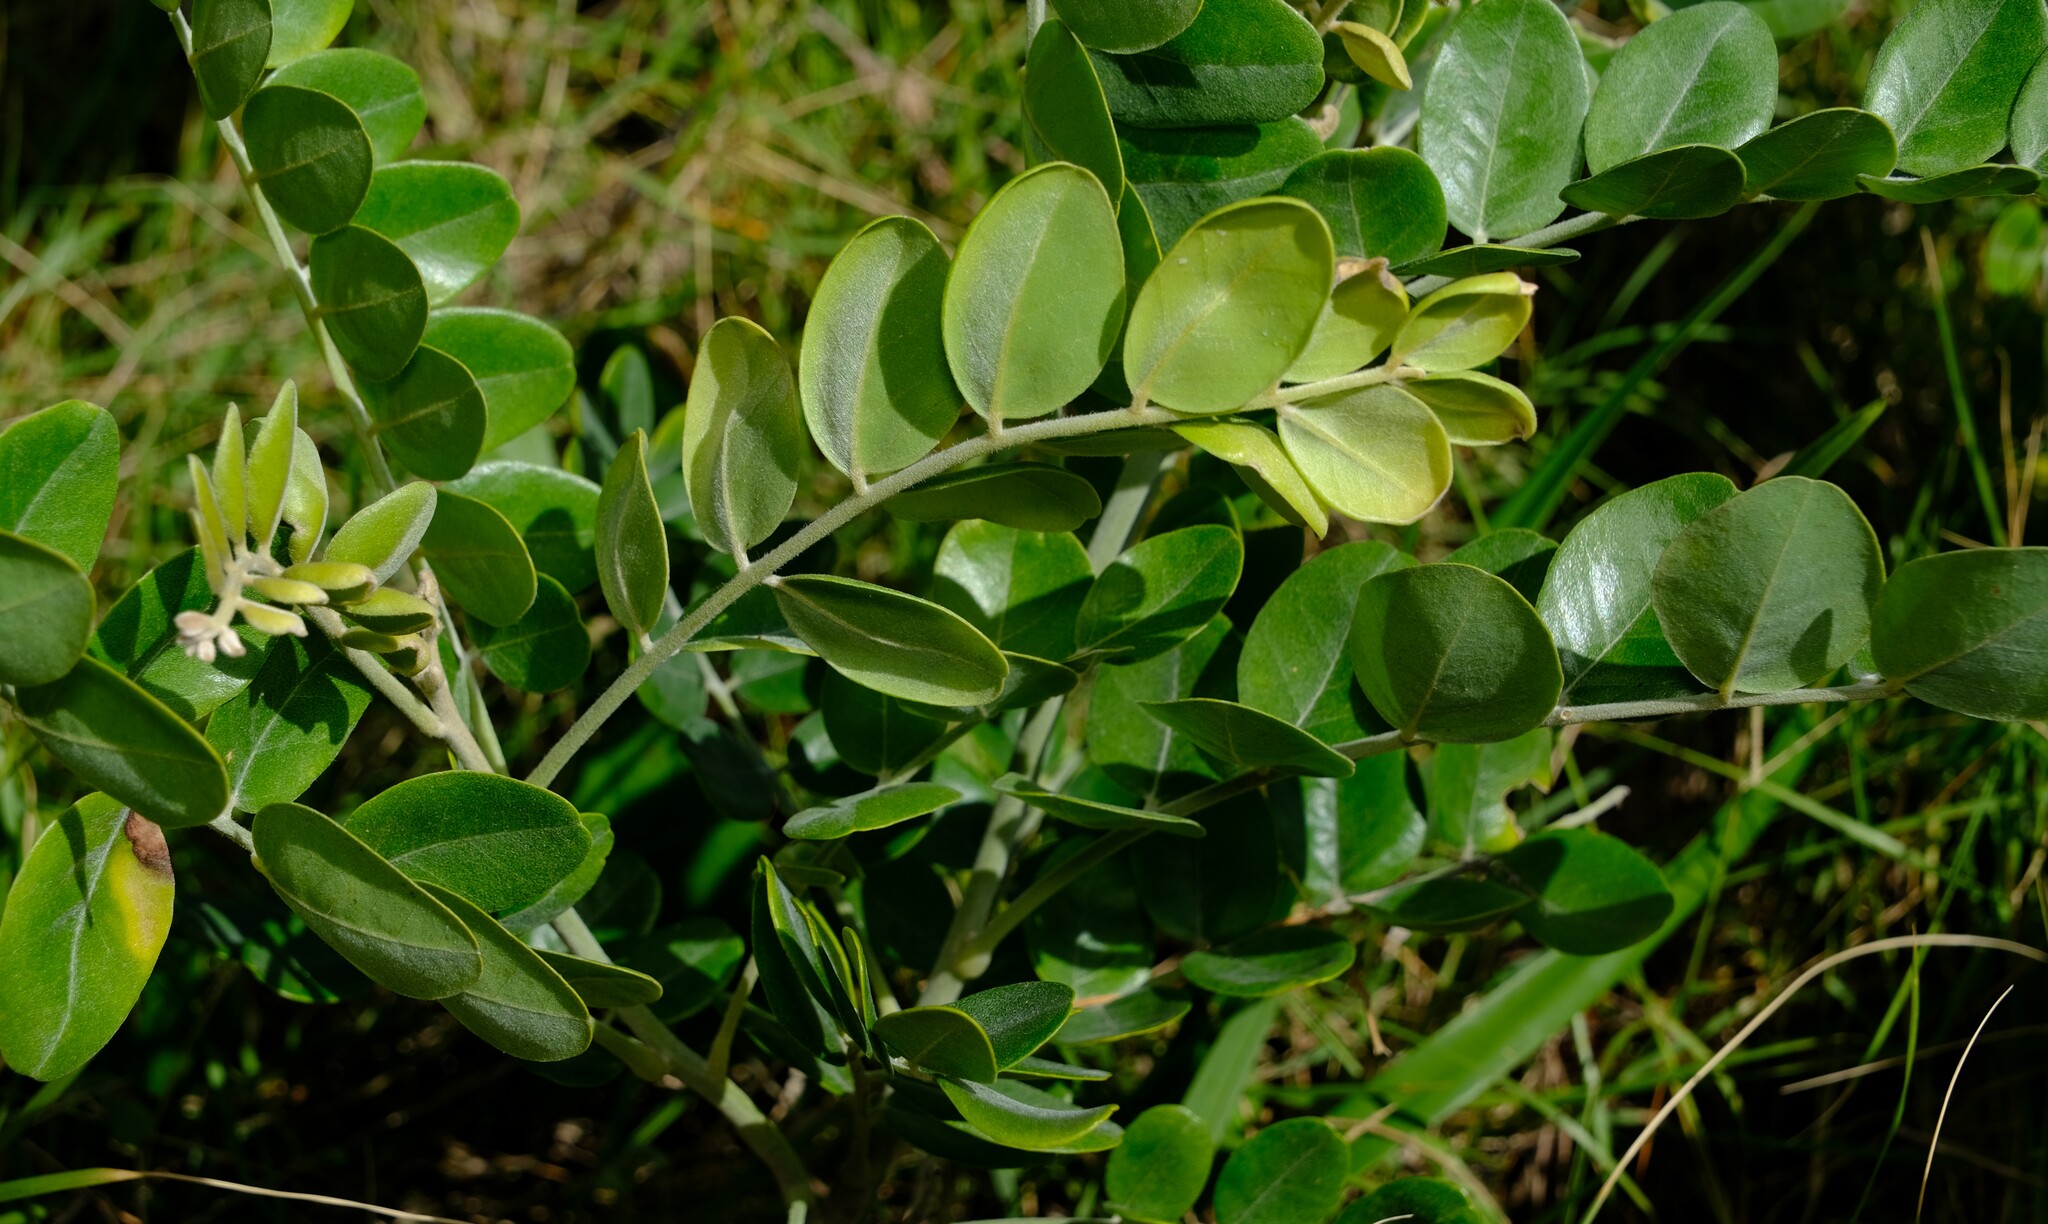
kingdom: Plantae
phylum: Tracheophyta
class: Magnoliopsida
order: Fabales
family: Fabaceae
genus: Sophora
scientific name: Sophora tomentosa
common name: Yellow necklacepod
